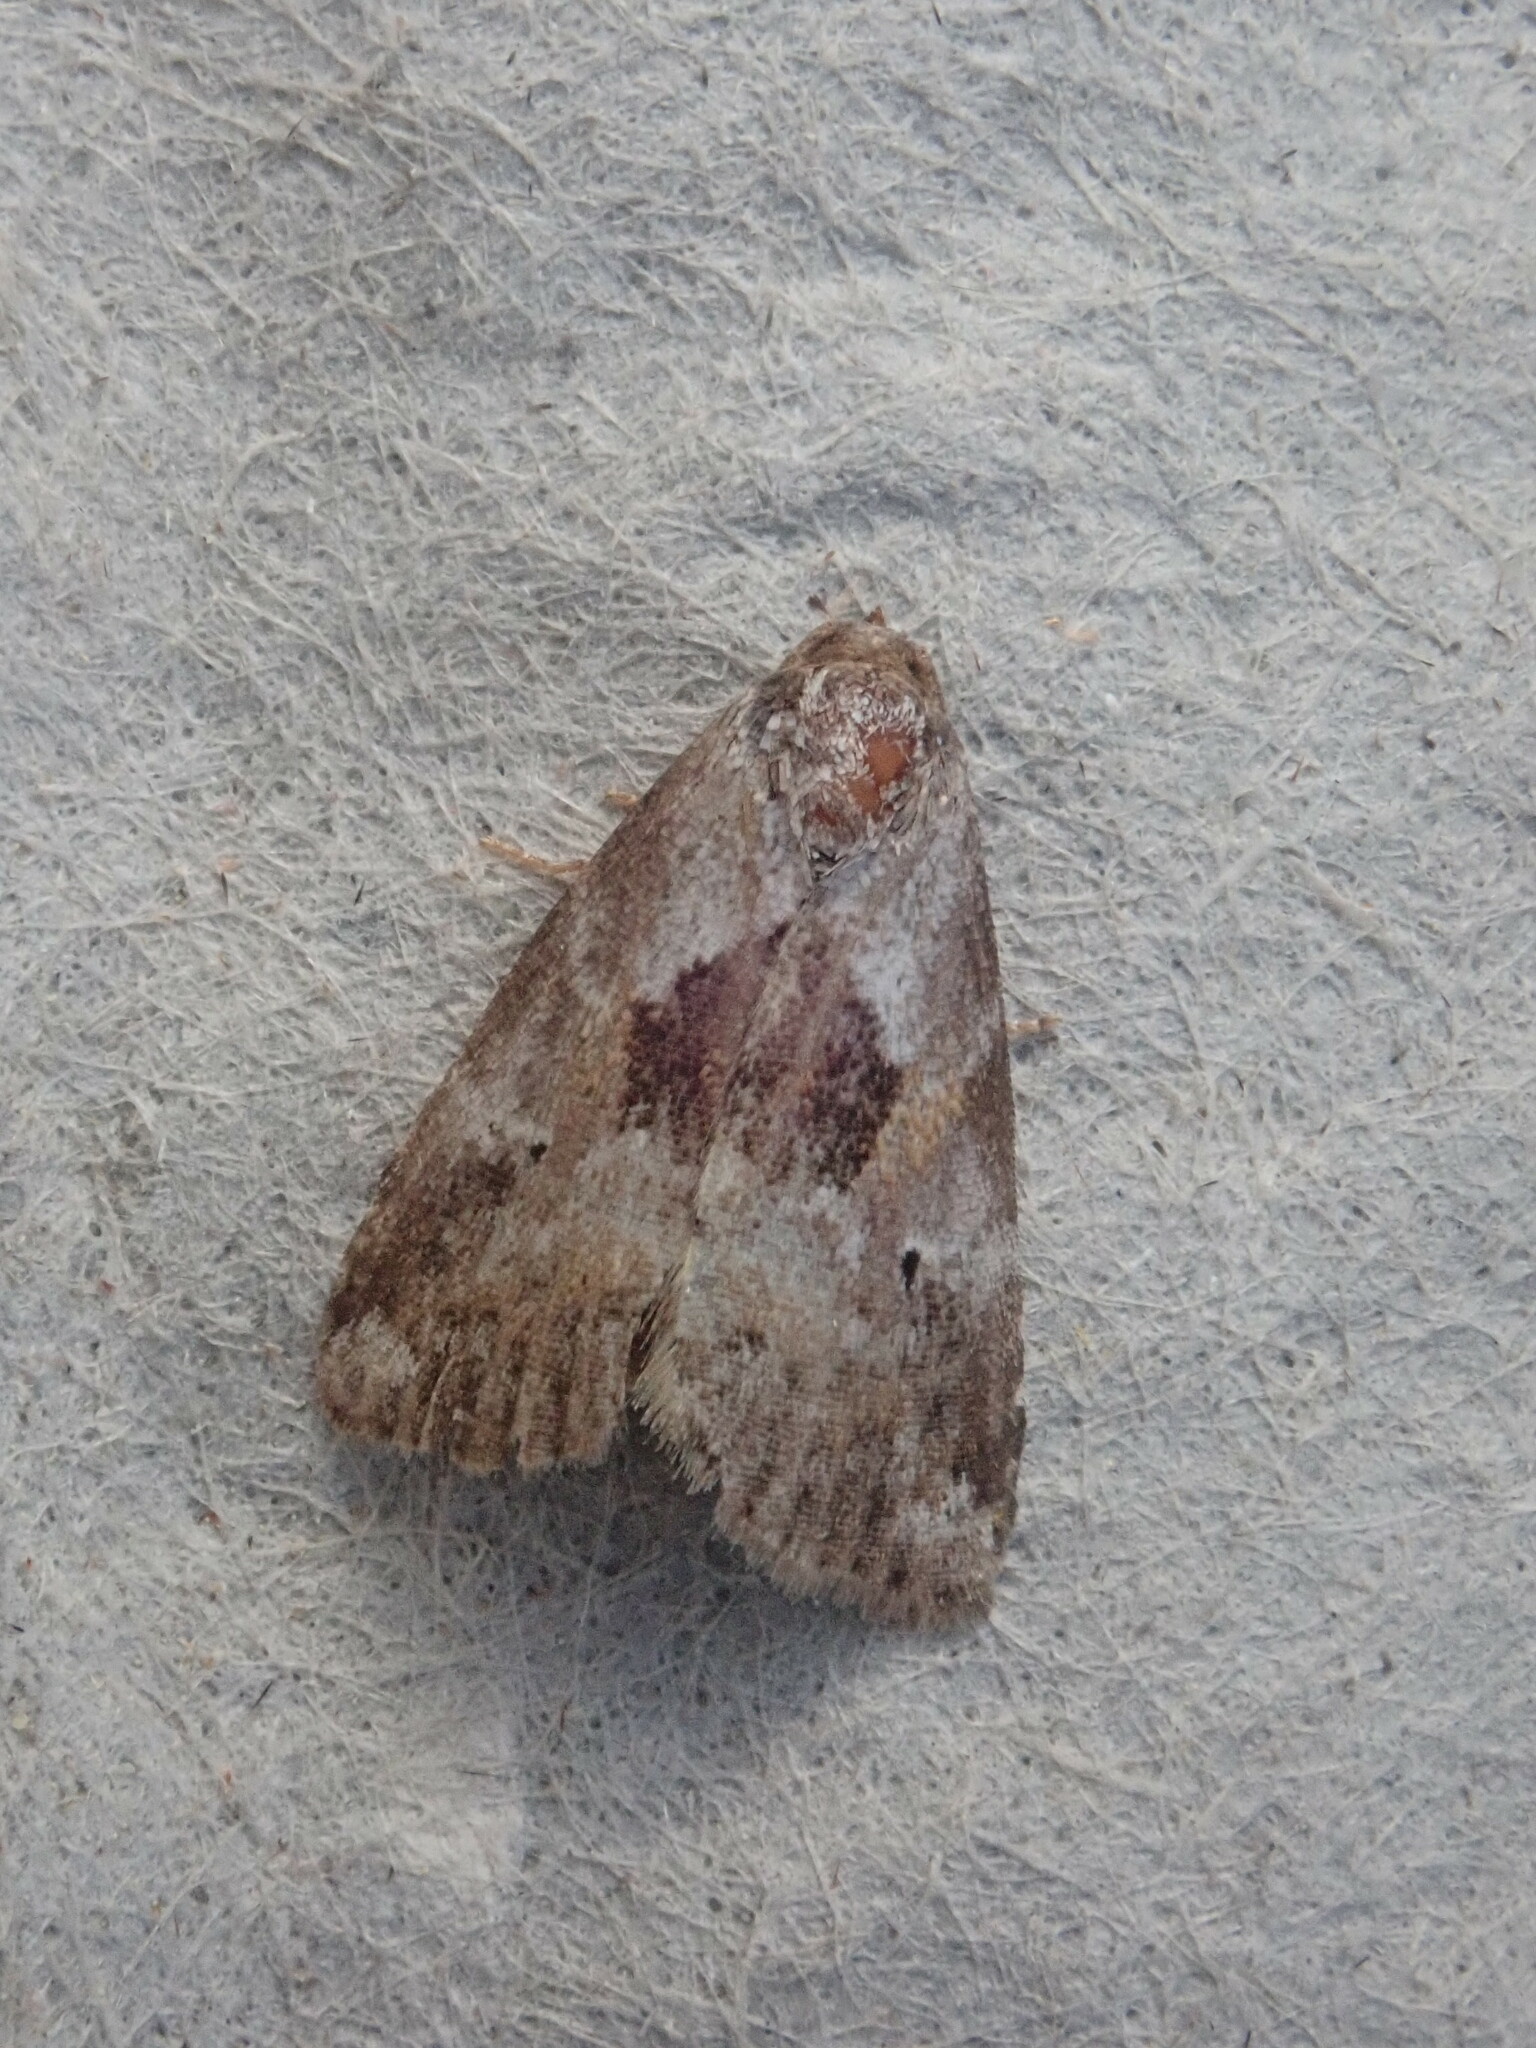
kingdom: Animalia
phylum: Arthropoda
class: Insecta
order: Lepidoptera
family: Erebidae
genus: Hyperstrotia
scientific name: Hyperstrotia secta
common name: Black-patched graylet
